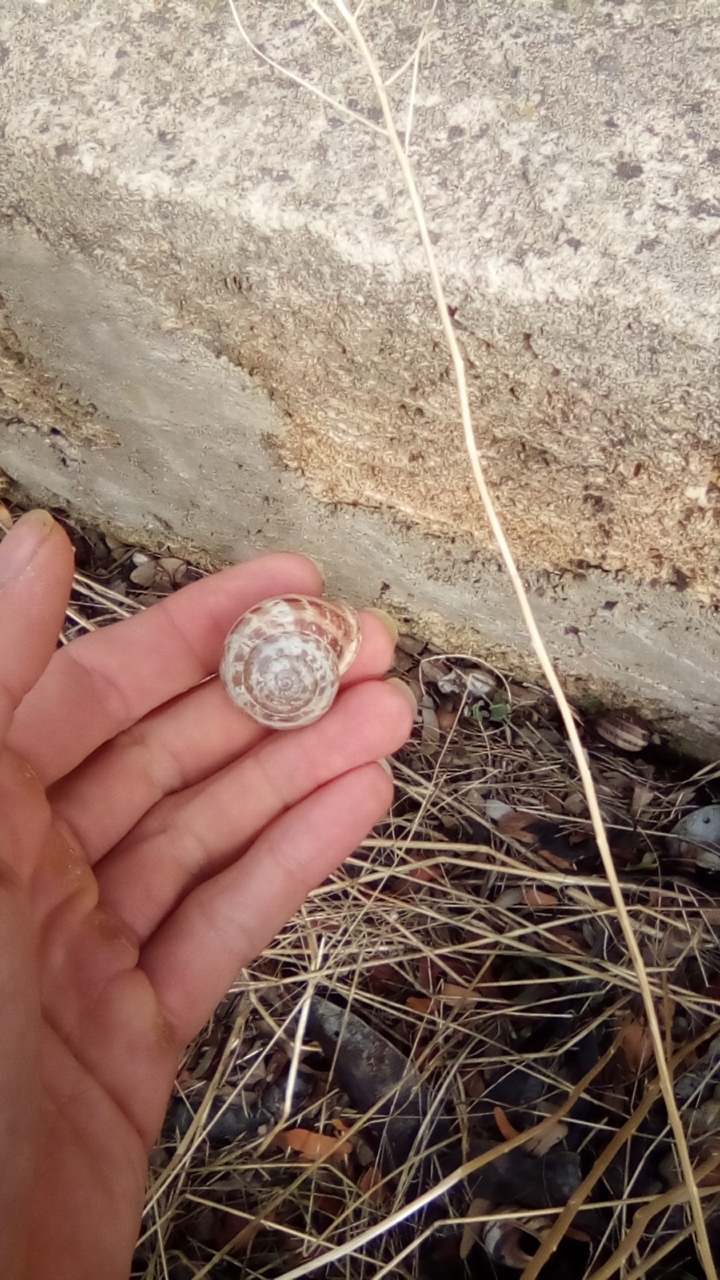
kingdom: Animalia
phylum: Mollusca
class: Gastropoda
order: Stylommatophora
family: Helicidae
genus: Eobania
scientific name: Eobania vermiculata
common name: Chocolateband snail
